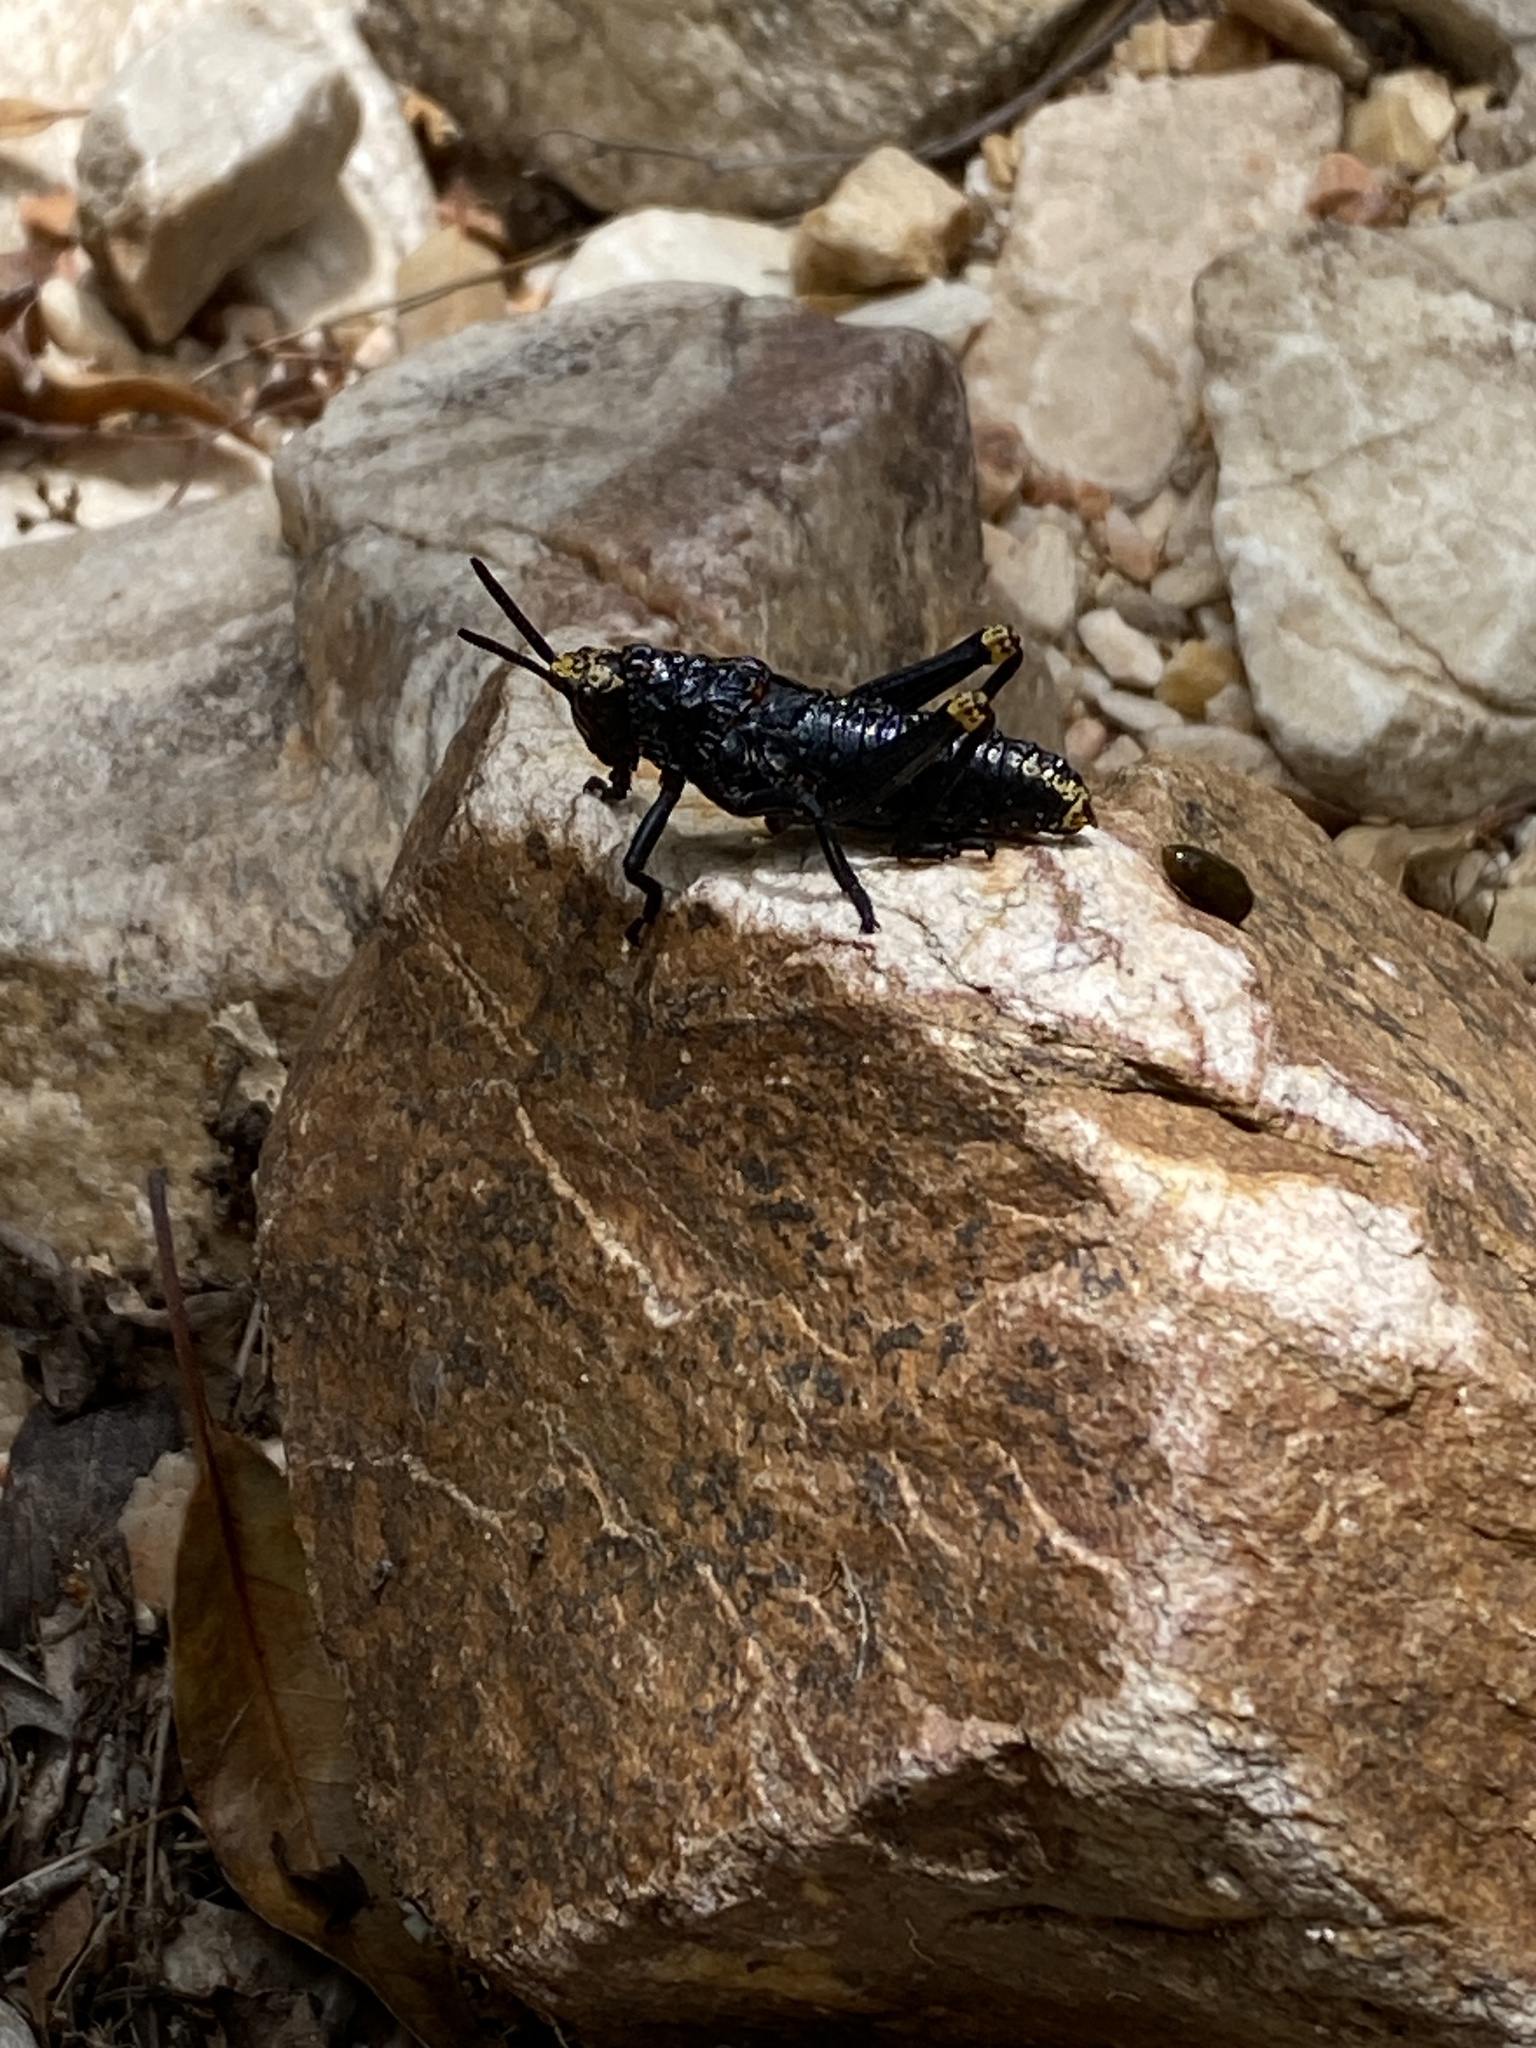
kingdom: Animalia
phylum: Arthropoda
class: Insecta
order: Orthoptera
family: Pyrgomorphidae
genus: Dictyophorus
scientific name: Dictyophorus spumans
